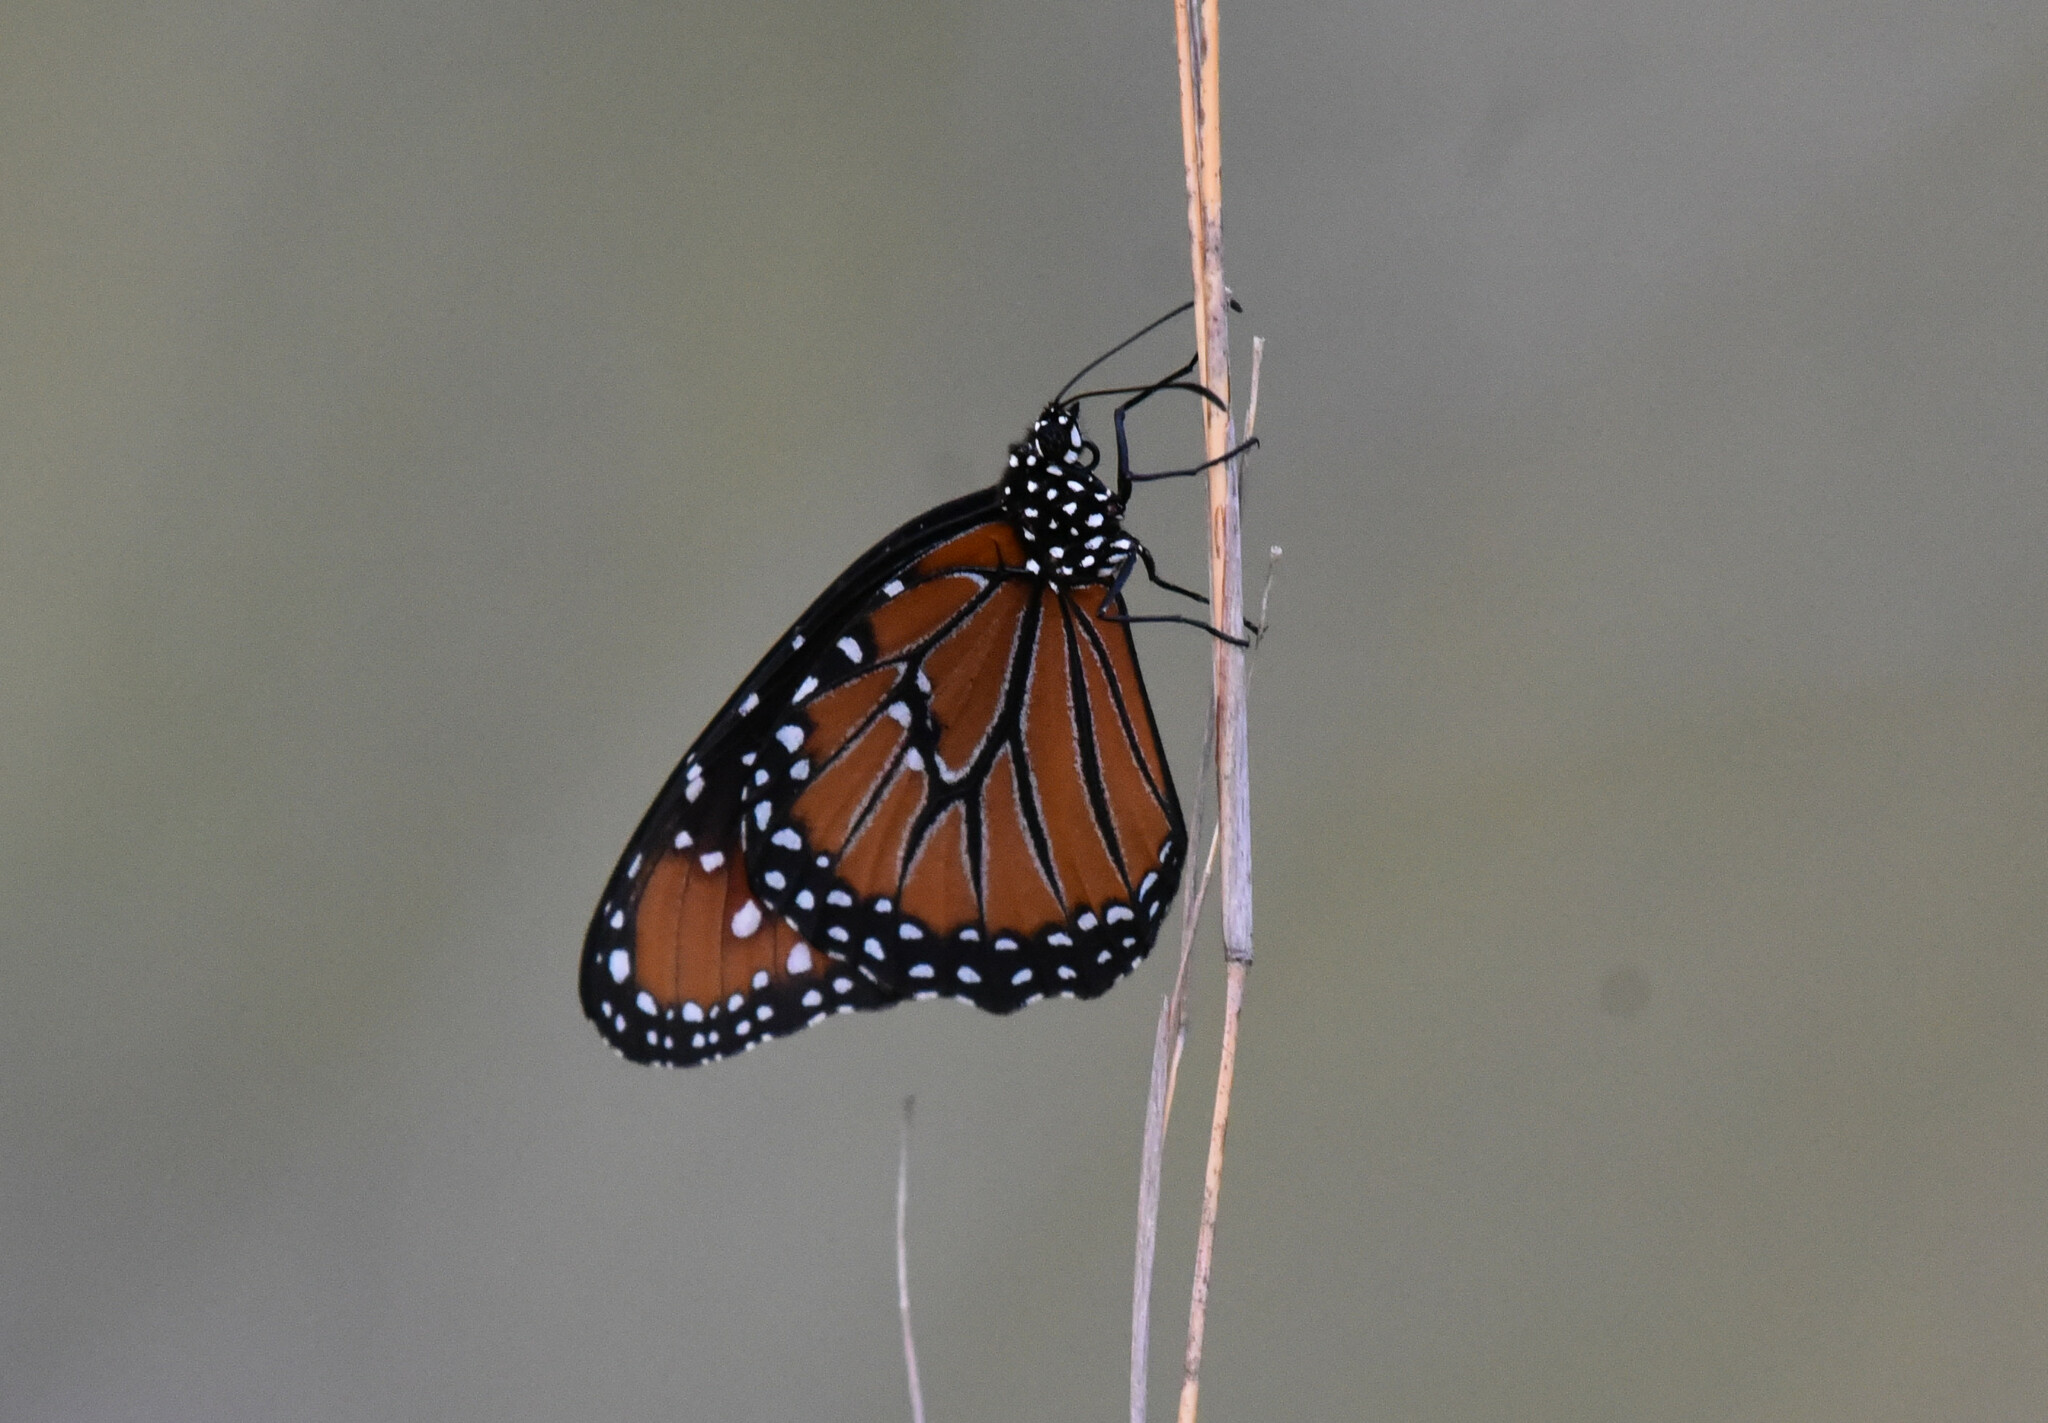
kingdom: Animalia
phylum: Arthropoda
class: Insecta
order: Lepidoptera
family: Nymphalidae
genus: Danaus
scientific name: Danaus gilippus
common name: Queen
